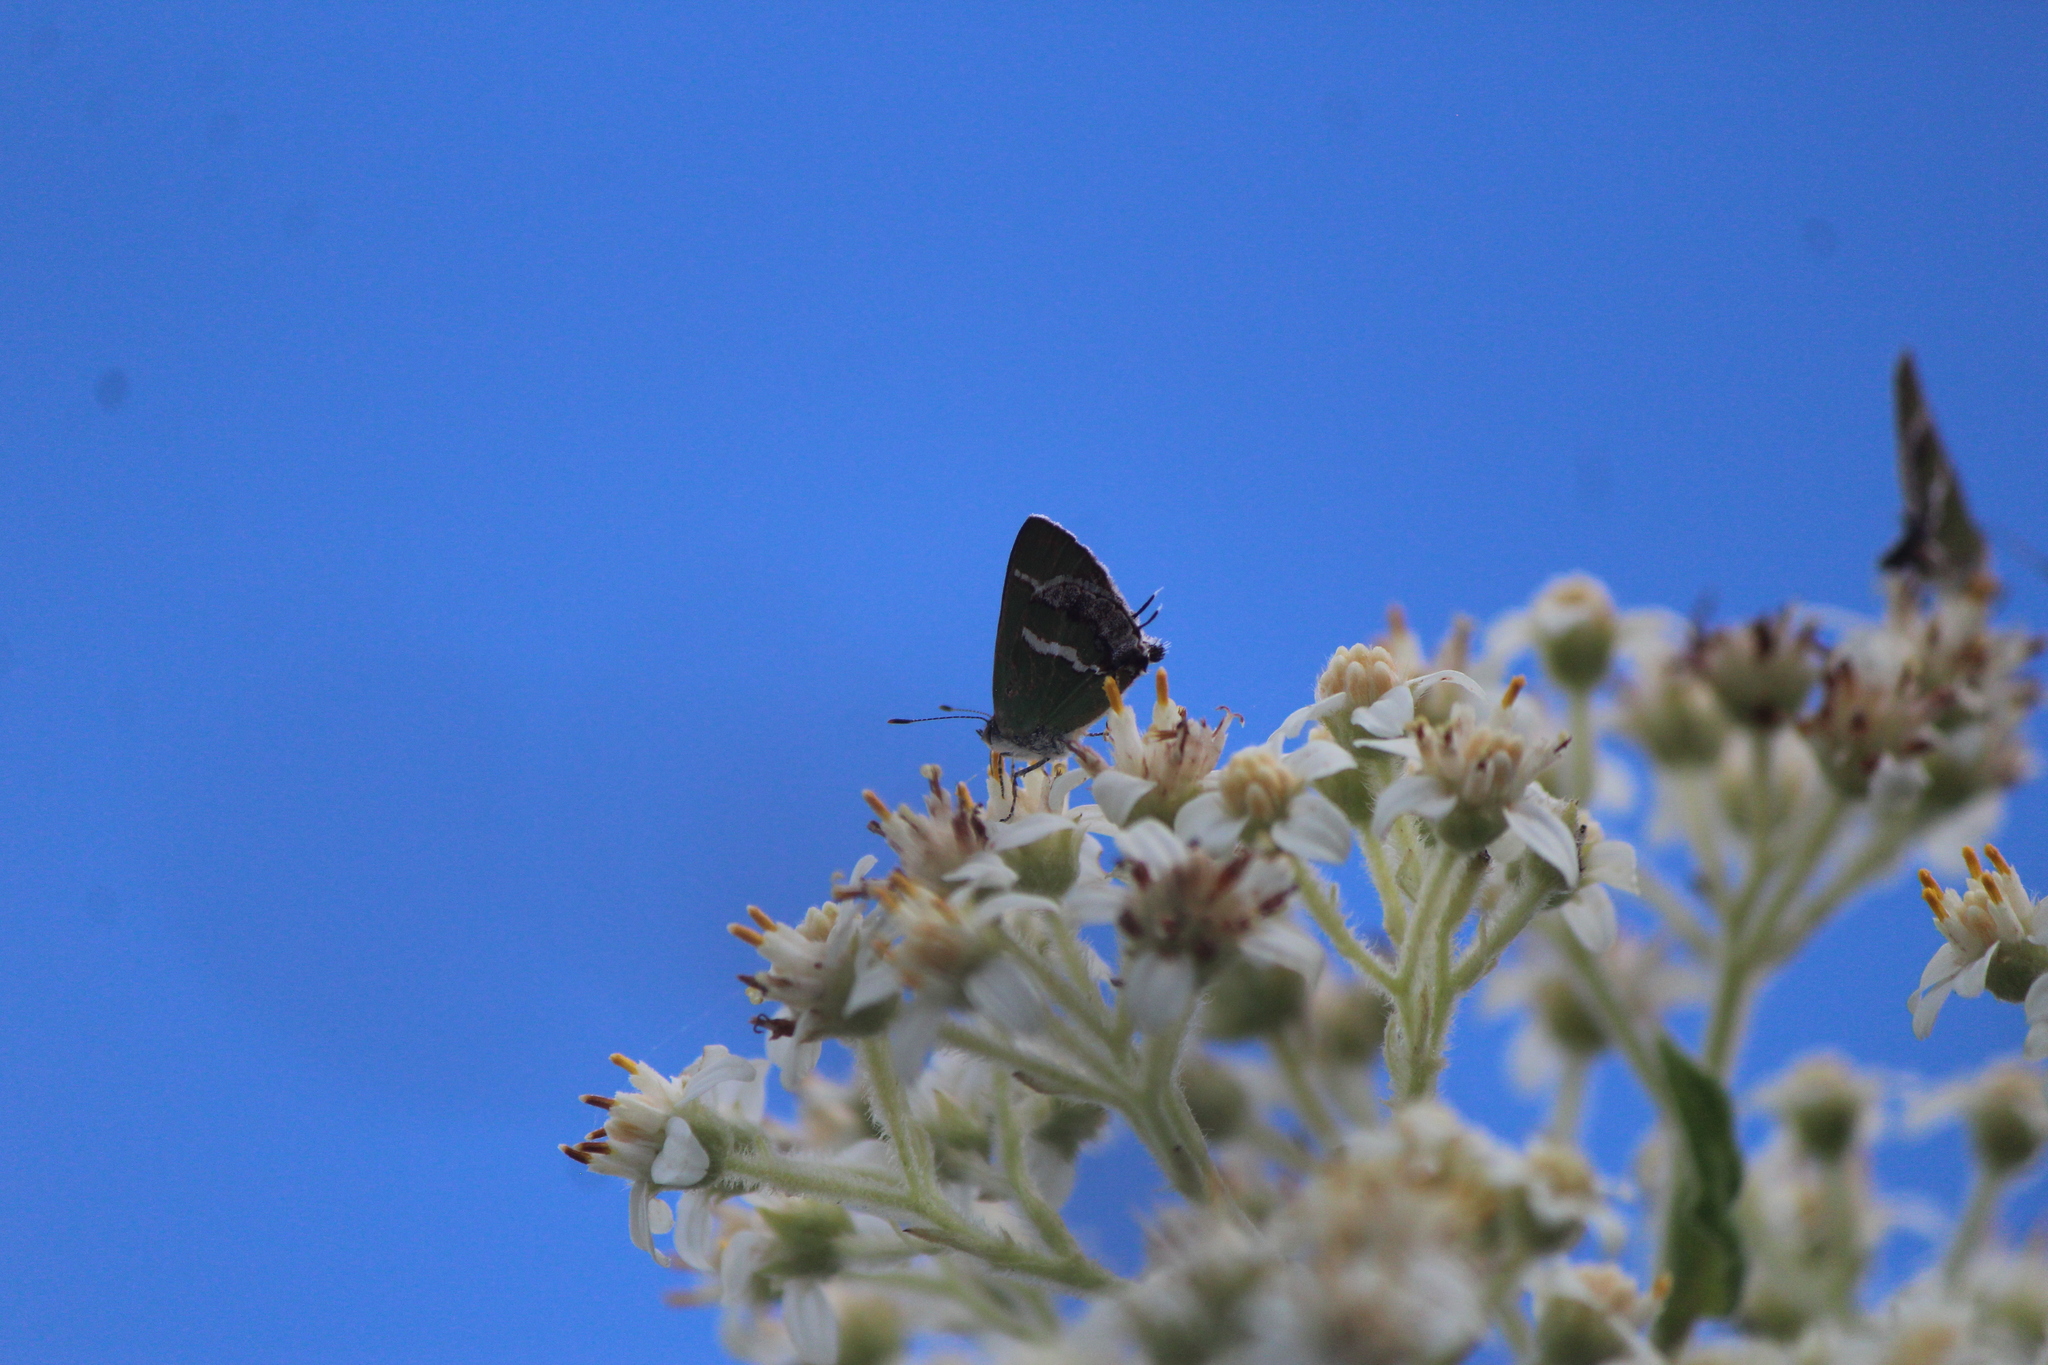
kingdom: Animalia
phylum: Arthropoda
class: Insecta
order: Lepidoptera
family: Lycaenidae
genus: Thecla
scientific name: Thecla sarita
